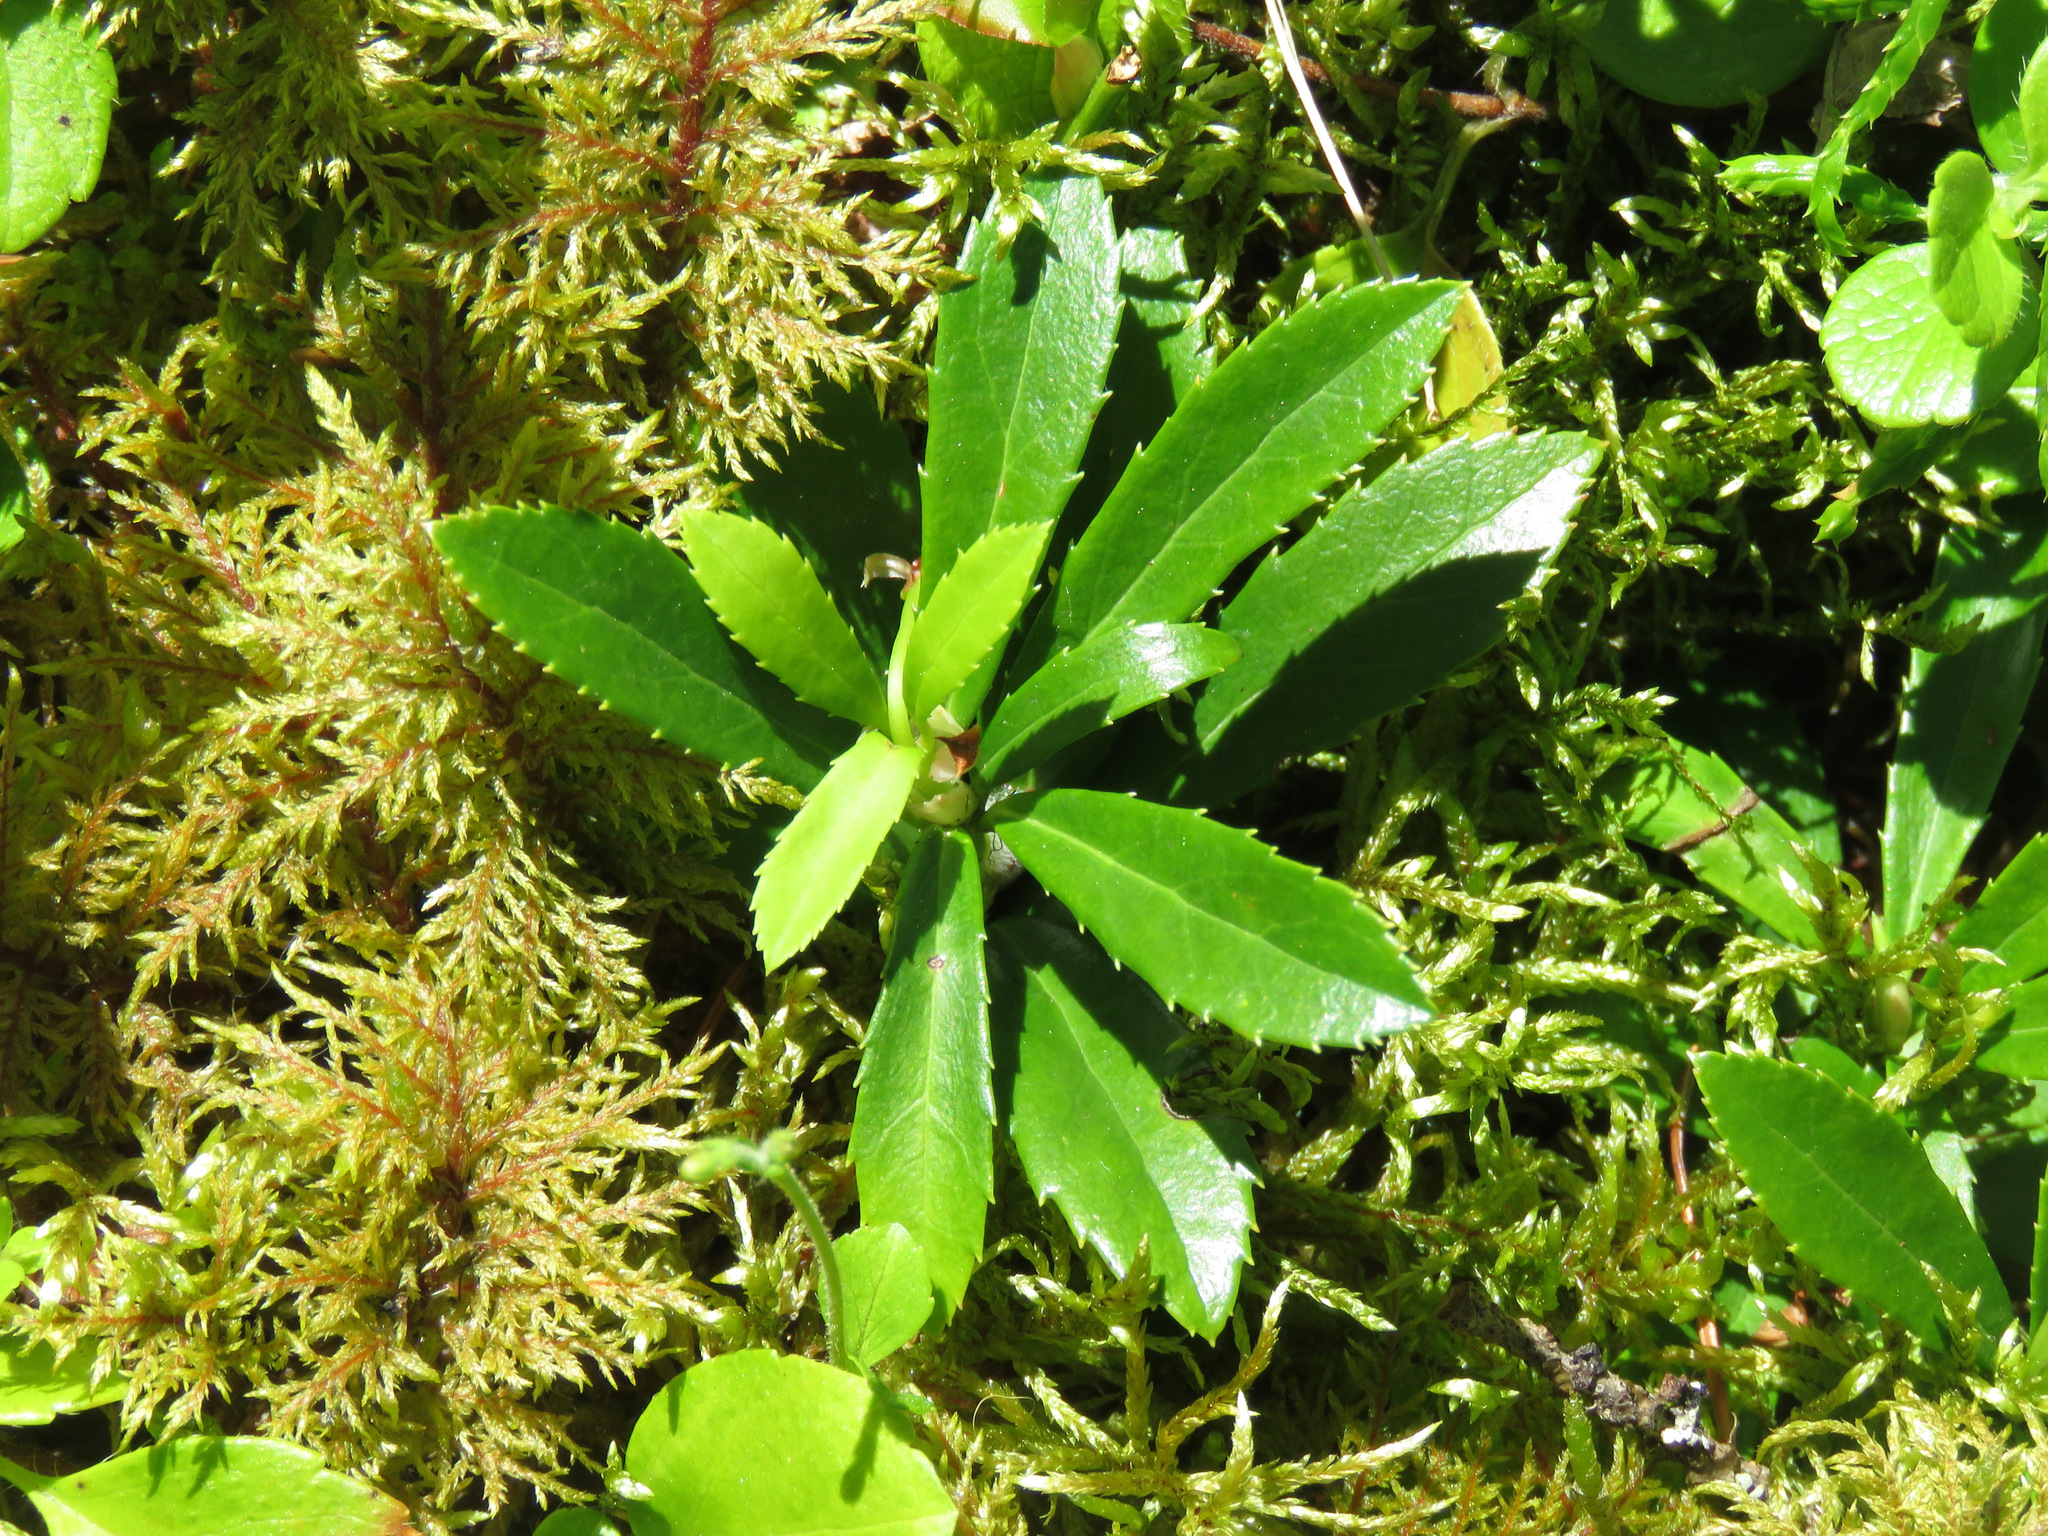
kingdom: Plantae
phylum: Tracheophyta
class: Magnoliopsida
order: Ericales
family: Ericaceae
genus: Chimaphila
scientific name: Chimaphila umbellata
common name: Pipsissewa
